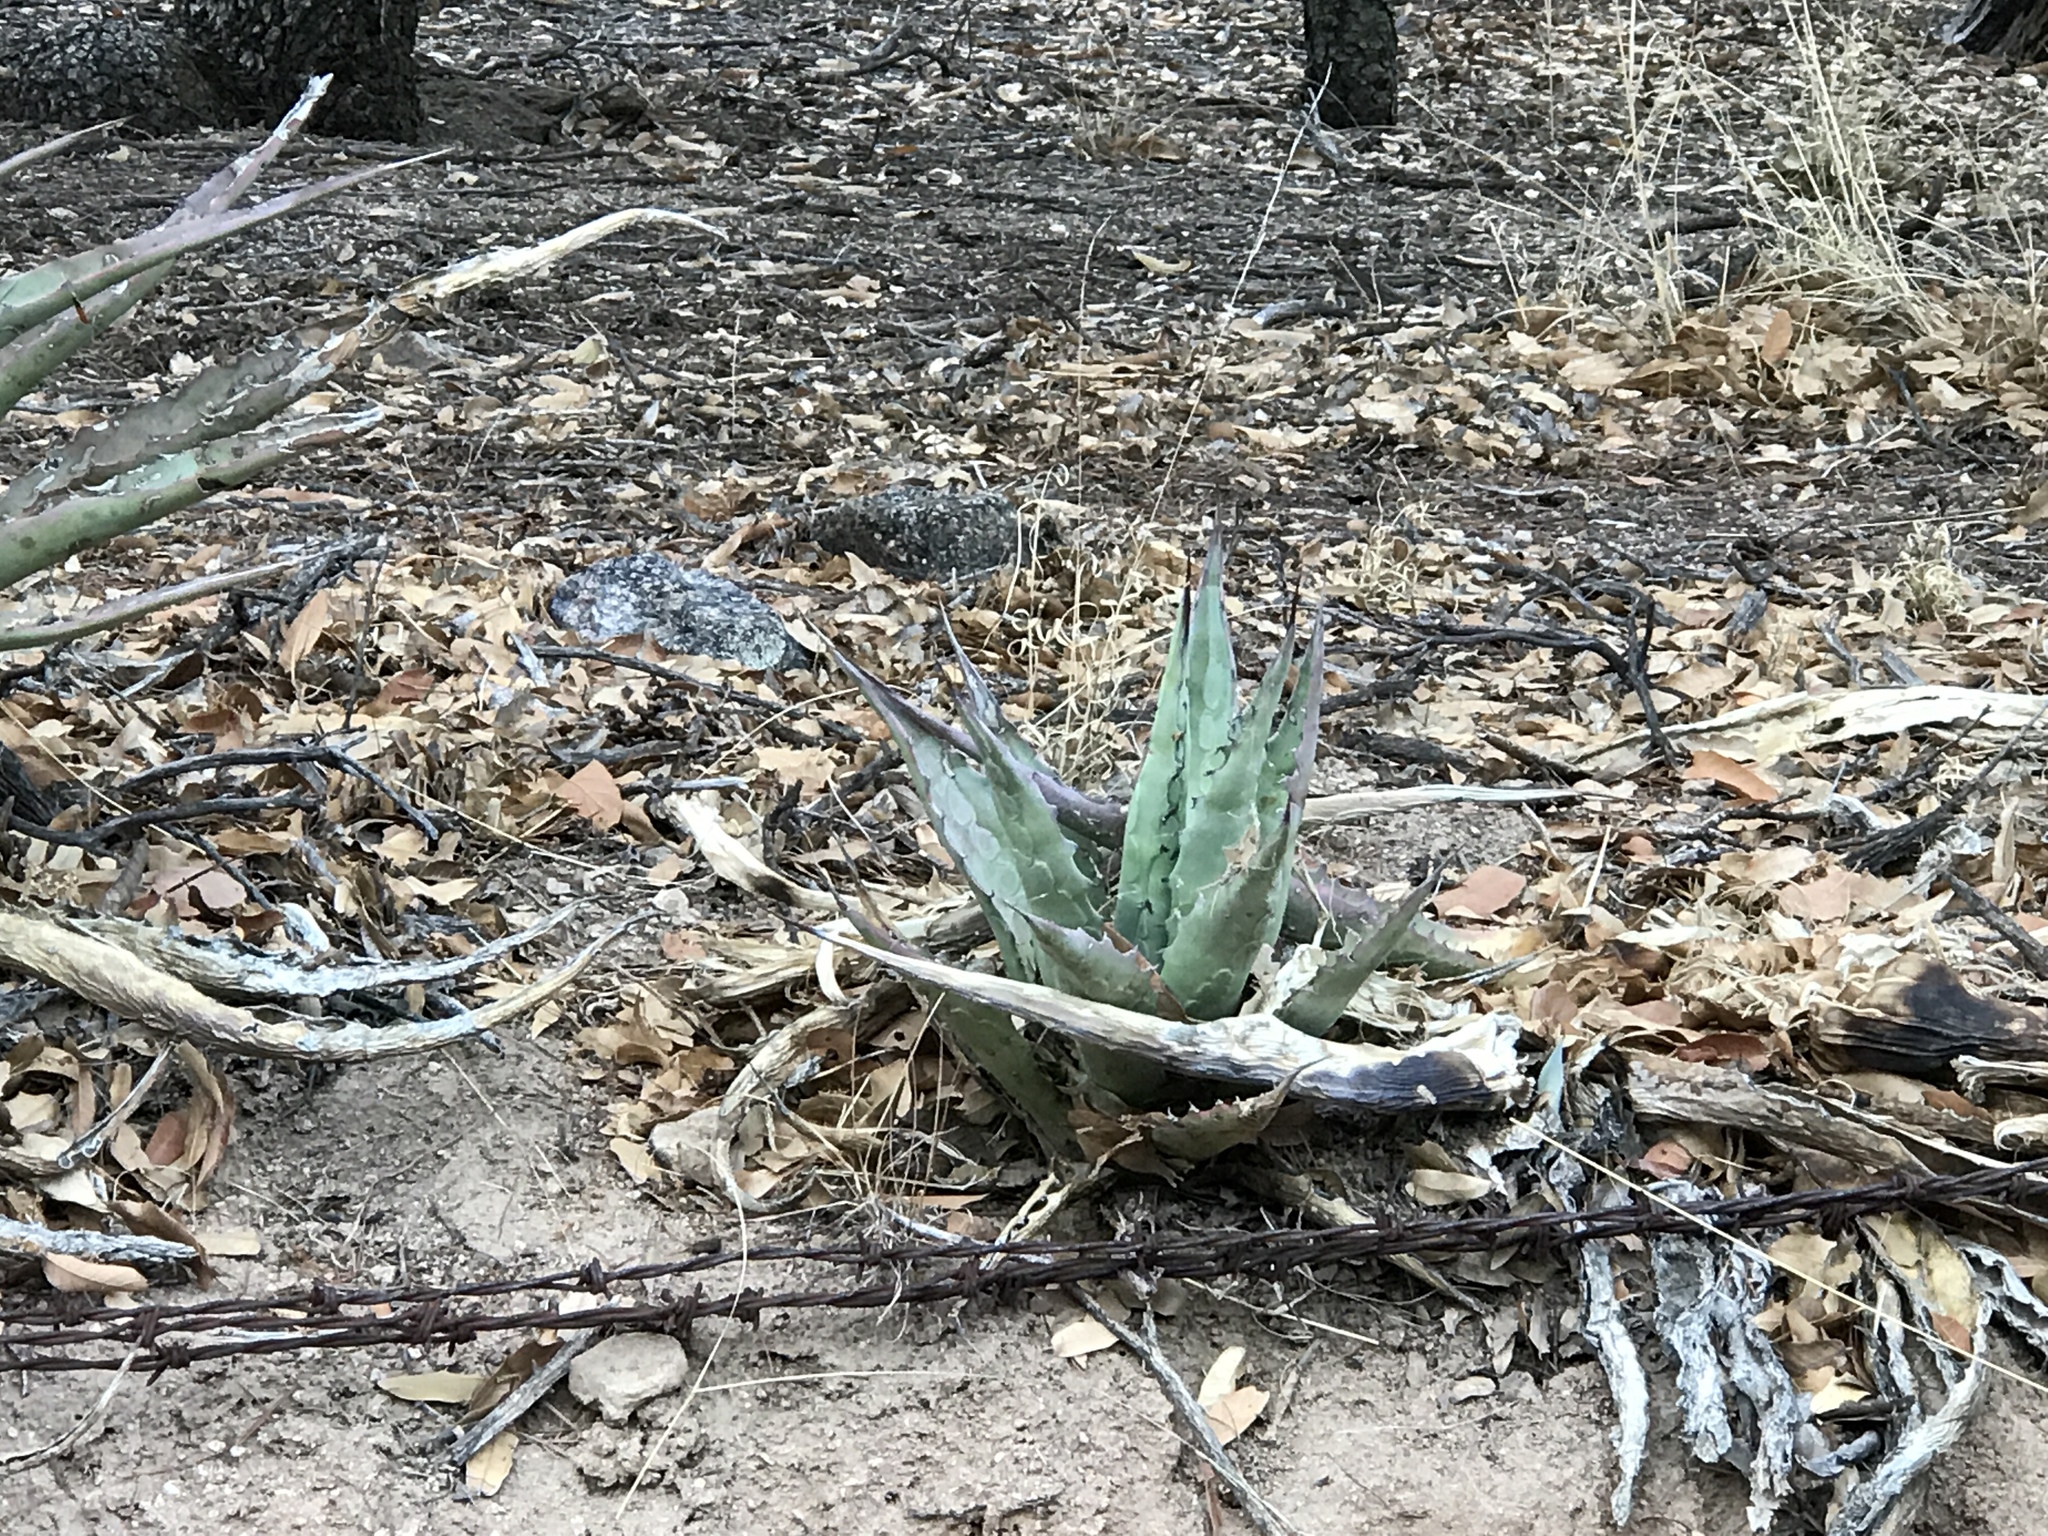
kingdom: Plantae
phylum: Tracheophyta
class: Liliopsida
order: Asparagales
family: Asparagaceae
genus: Agave
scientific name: Agave shrevei
